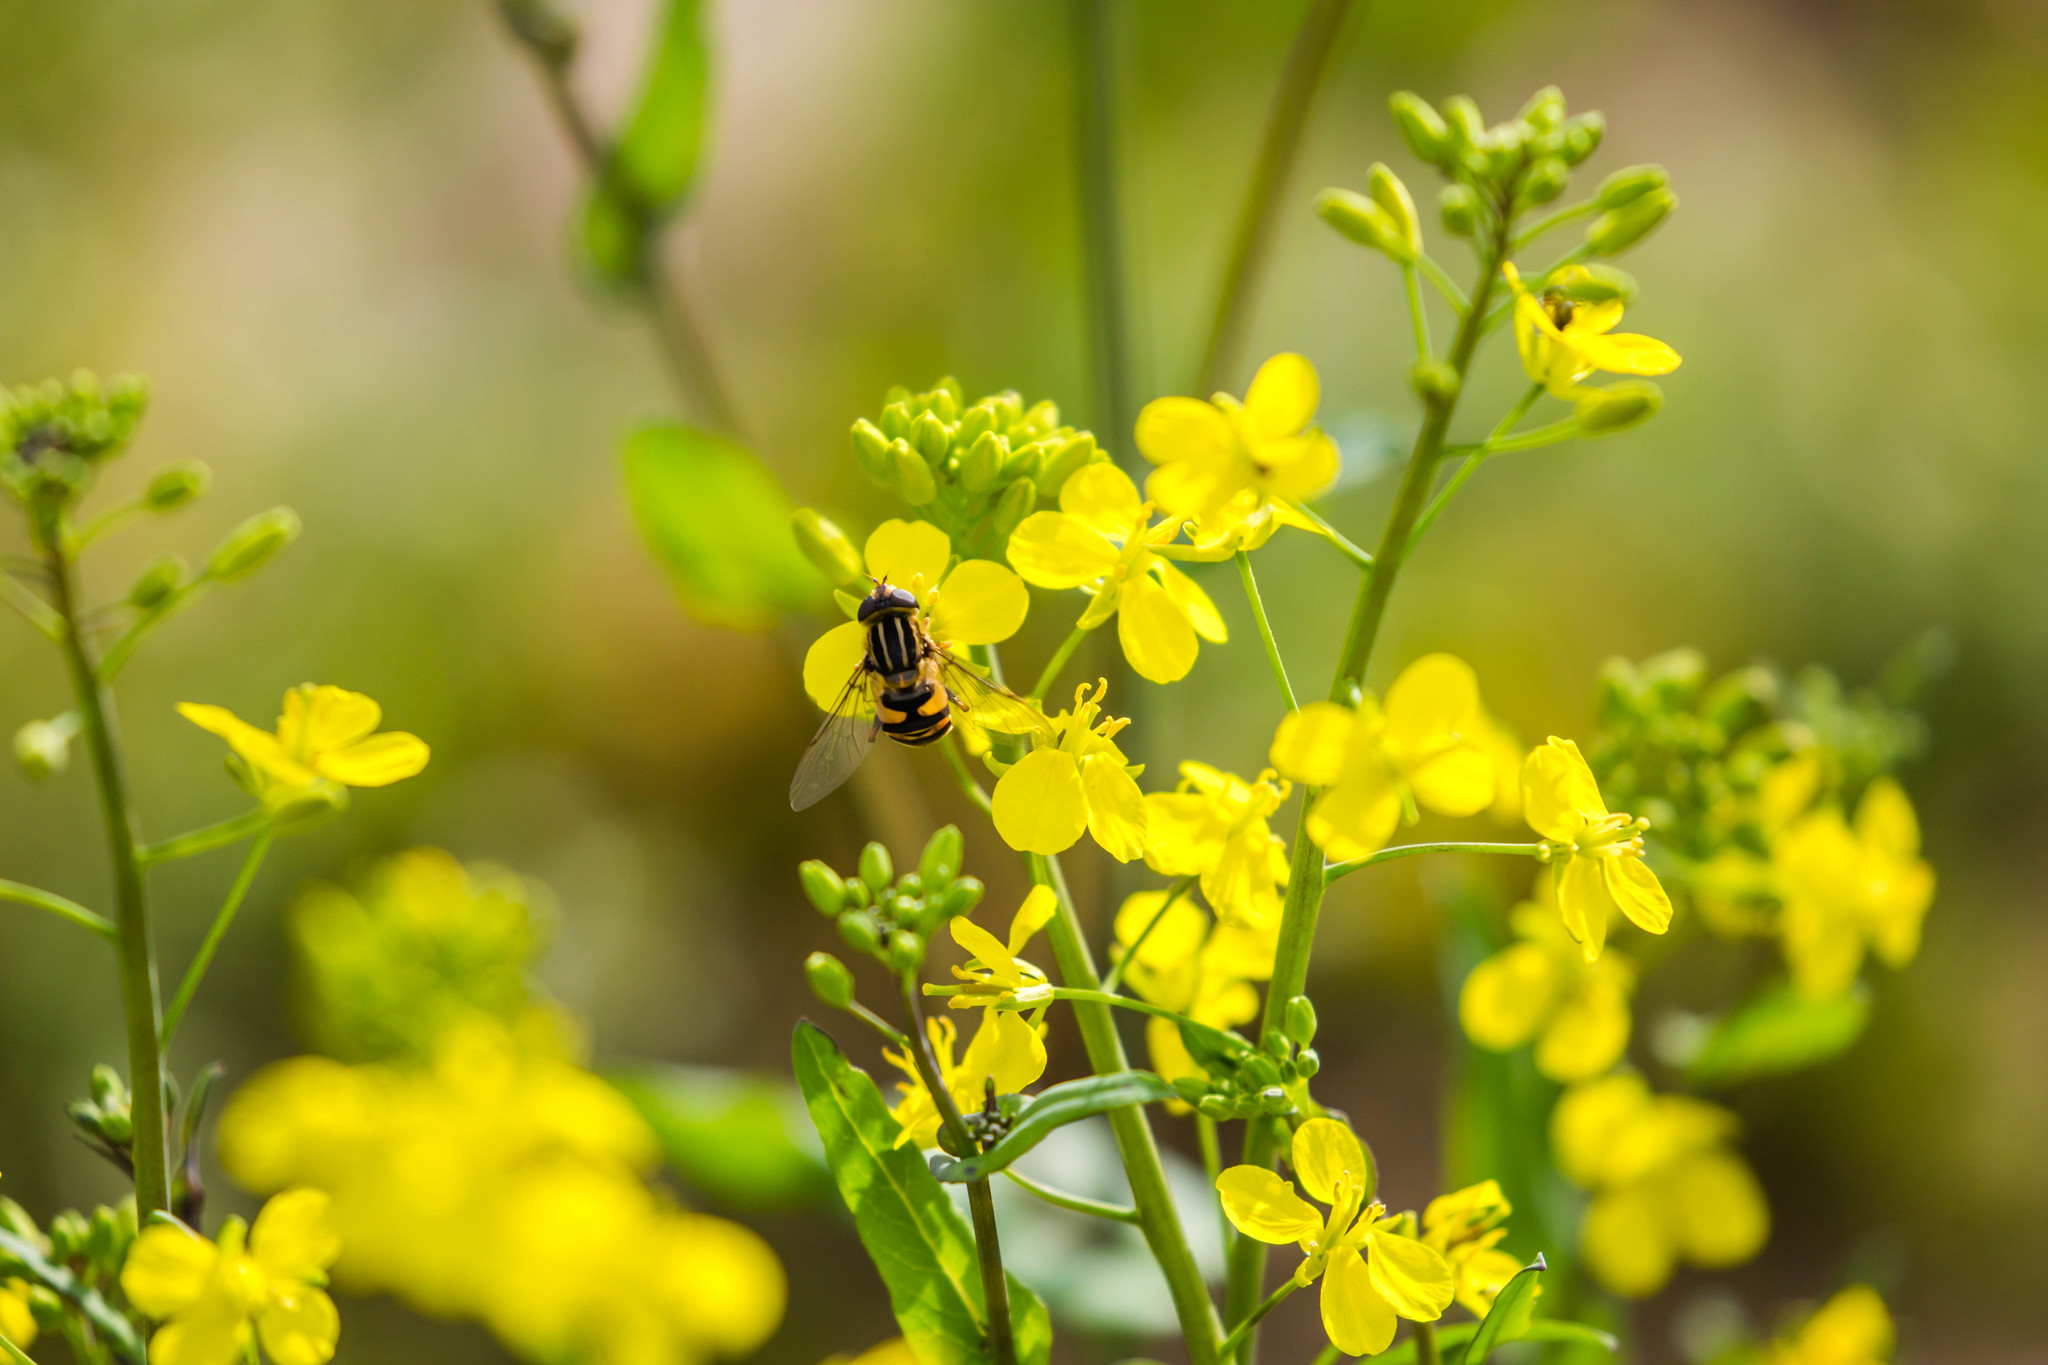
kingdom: Animalia
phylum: Arthropoda
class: Insecta
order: Diptera
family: Syrphidae
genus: Helophilus
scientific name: Helophilus fasciatus
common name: Narrow-headed marsh fly
